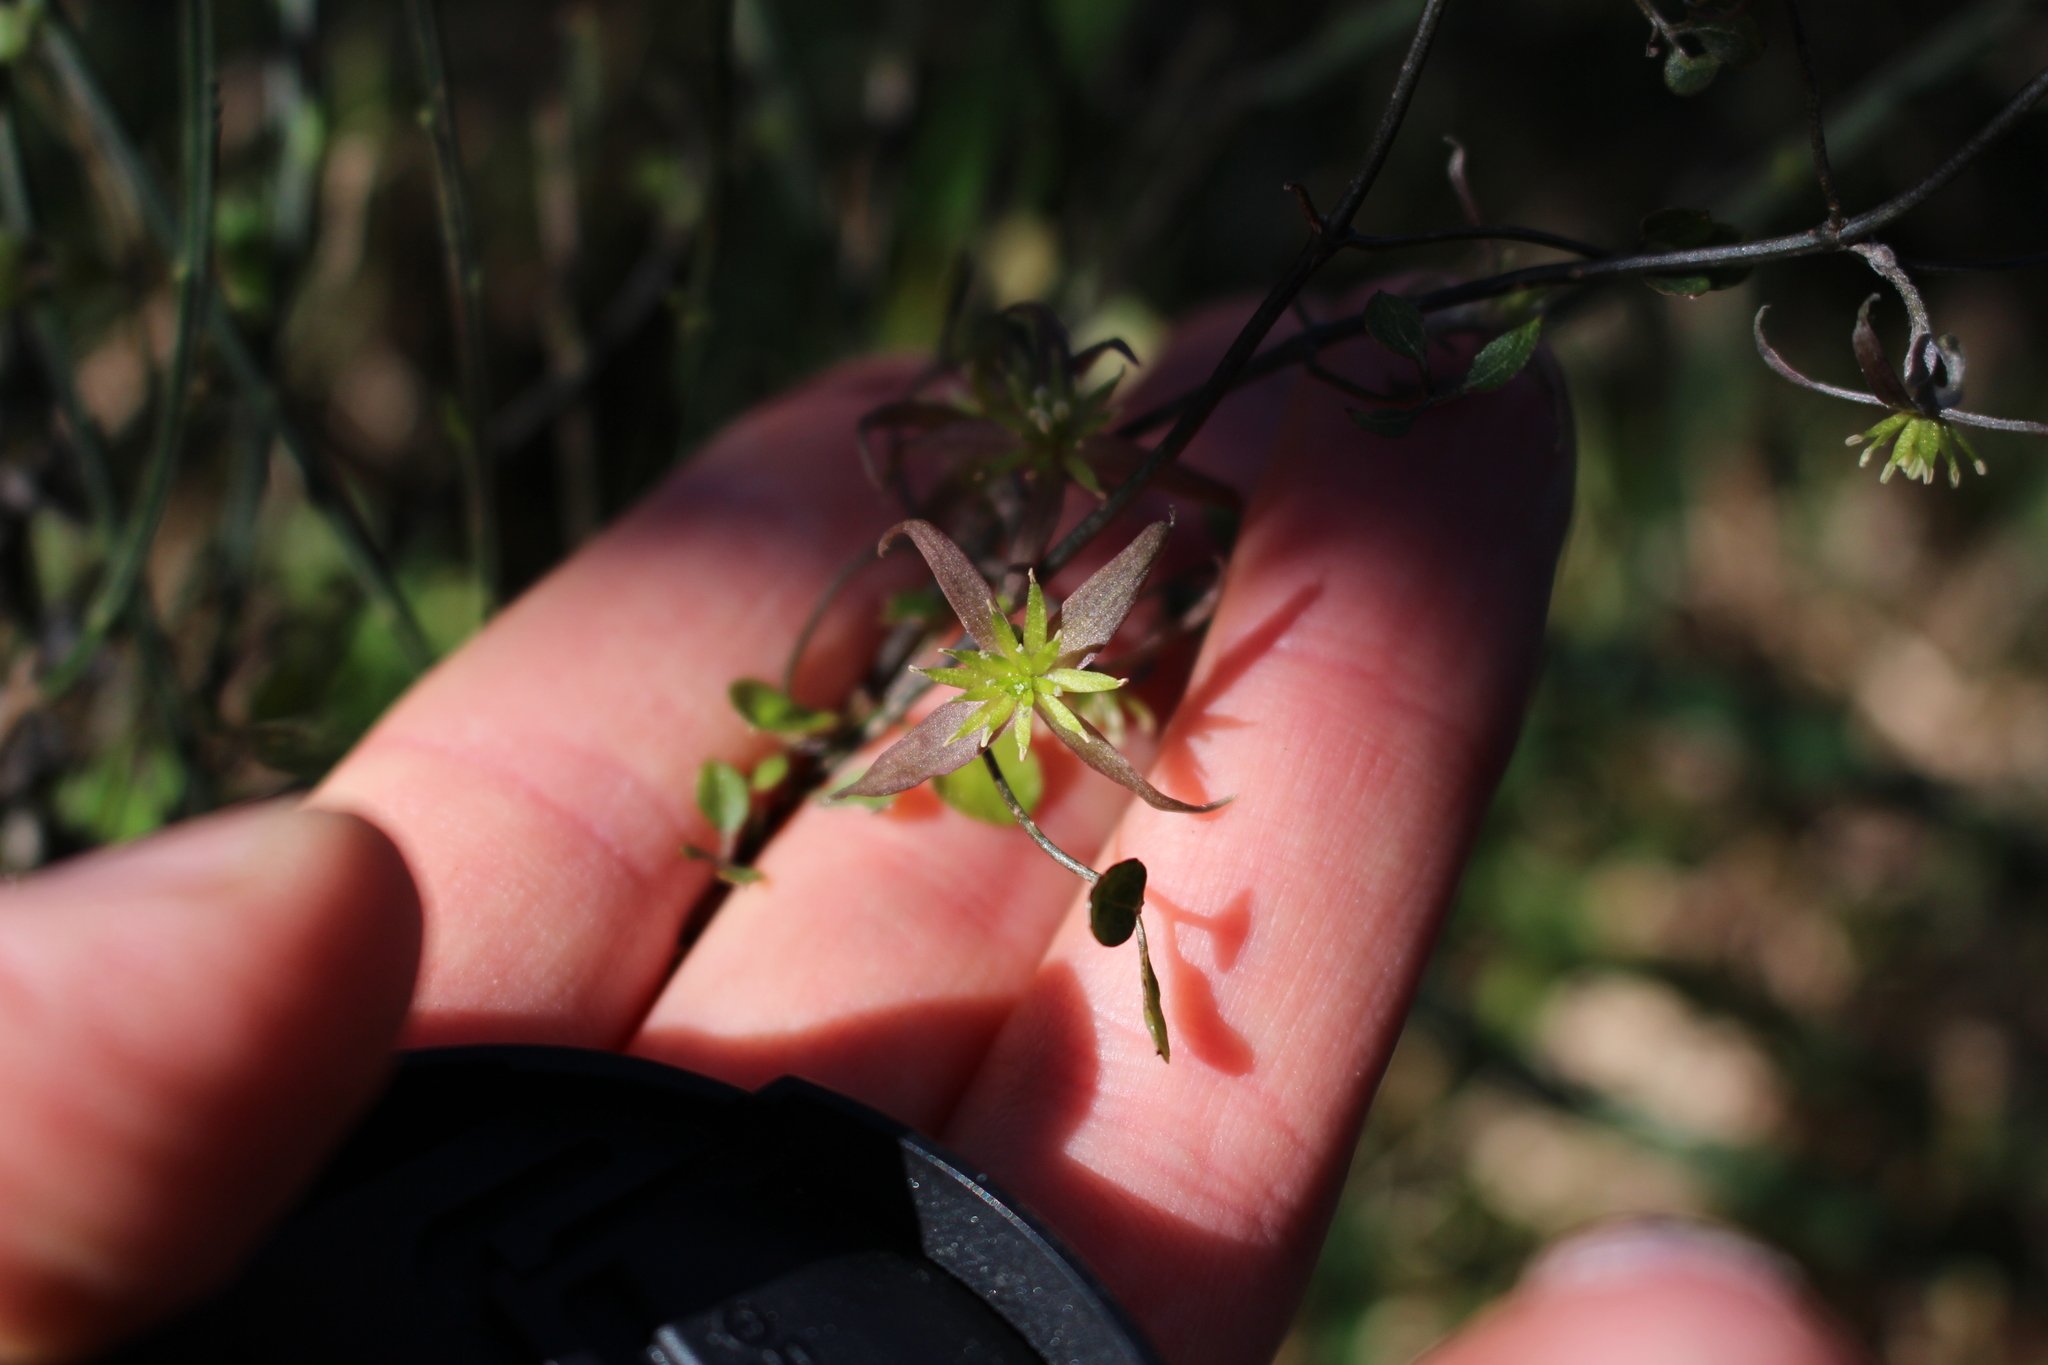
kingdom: Plantae
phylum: Tracheophyta
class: Magnoliopsida
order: Ranunculales
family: Ranunculaceae
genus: Clematis
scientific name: Clematis quadribracteolata
